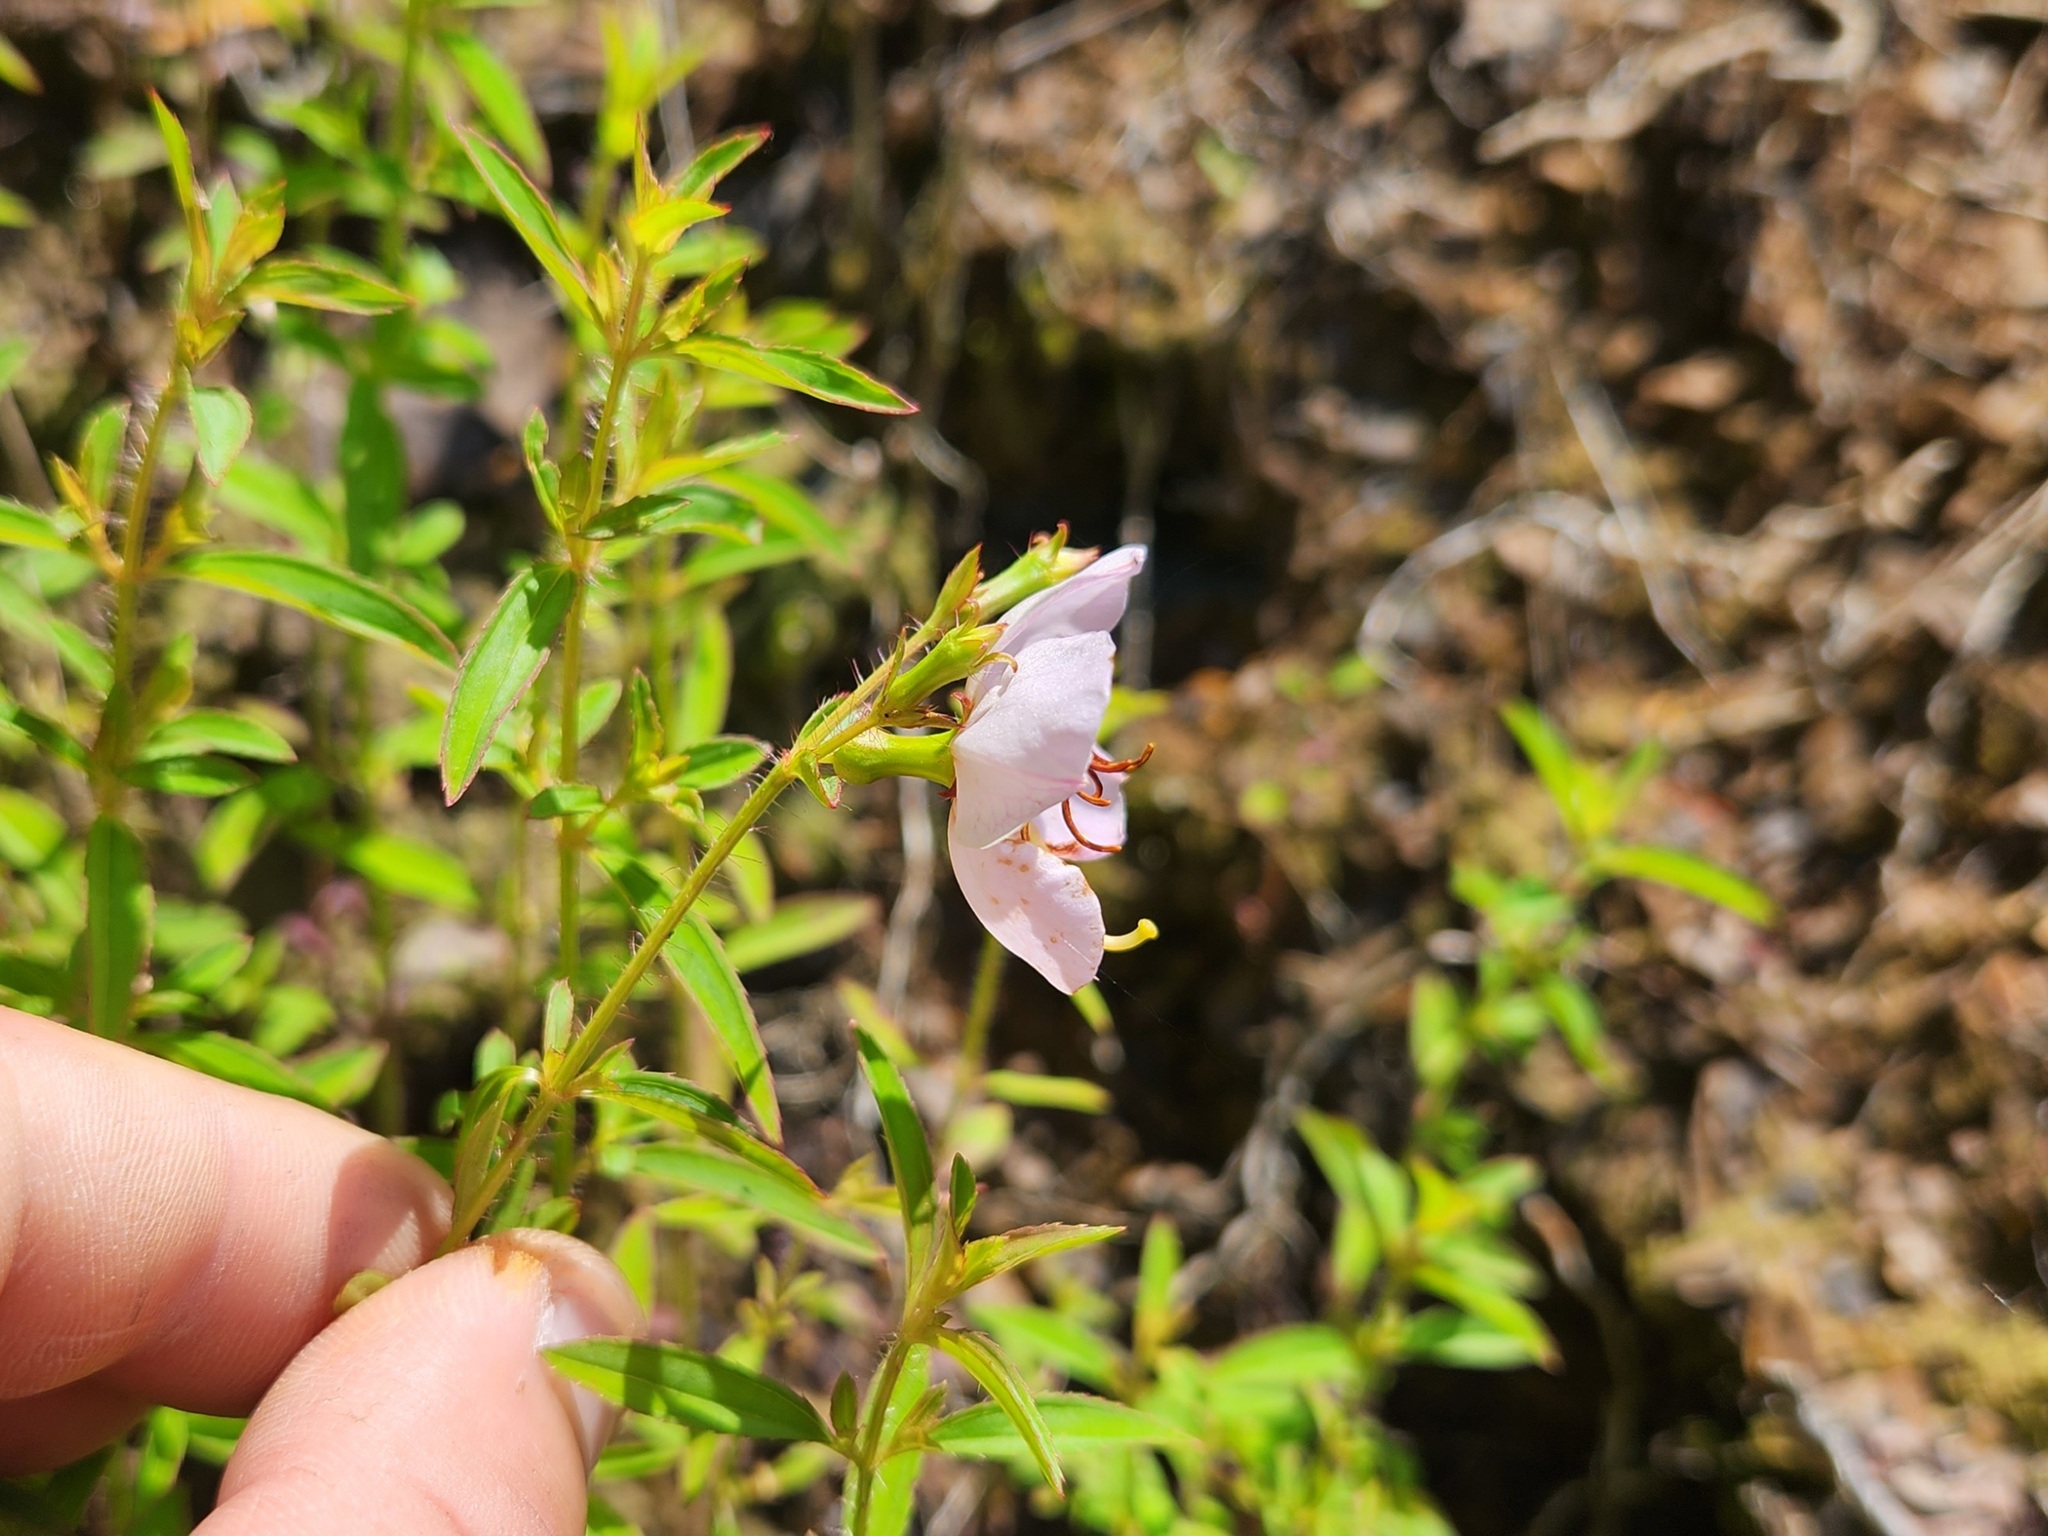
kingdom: Plantae
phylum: Tracheophyta
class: Magnoliopsida
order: Myrtales
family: Melastomataceae
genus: Rhexia
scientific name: Rhexia mariana
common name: Dull meadow-pitcher
